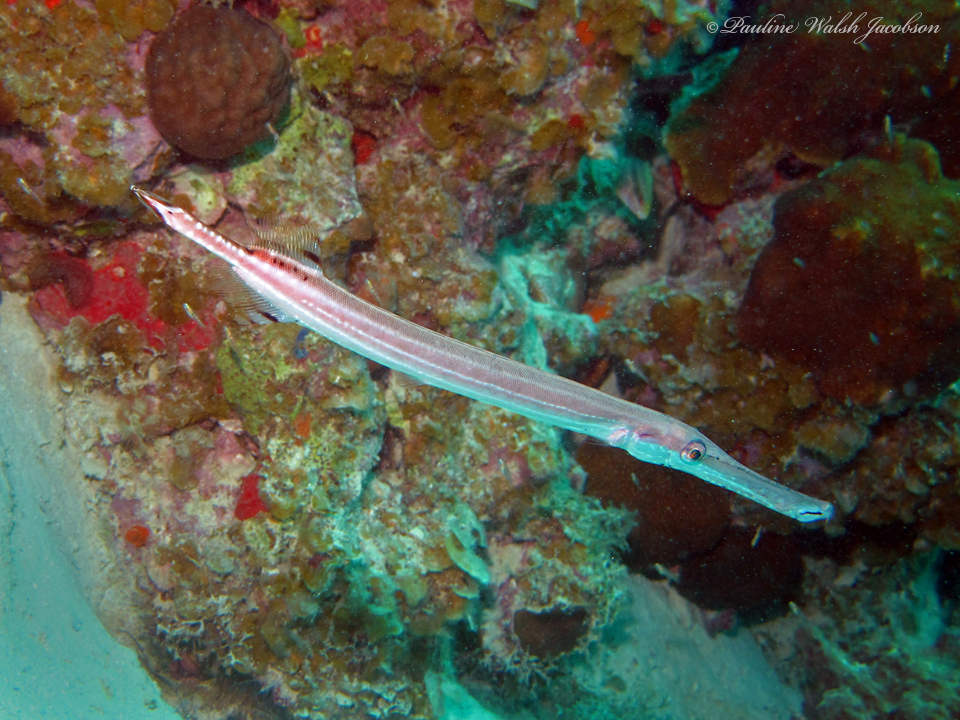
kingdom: Animalia
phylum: Chordata
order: Syngnathiformes
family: Aulostomidae
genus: Aulostomus
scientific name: Aulostomus maculatus
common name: West atlantic trumpetfish
